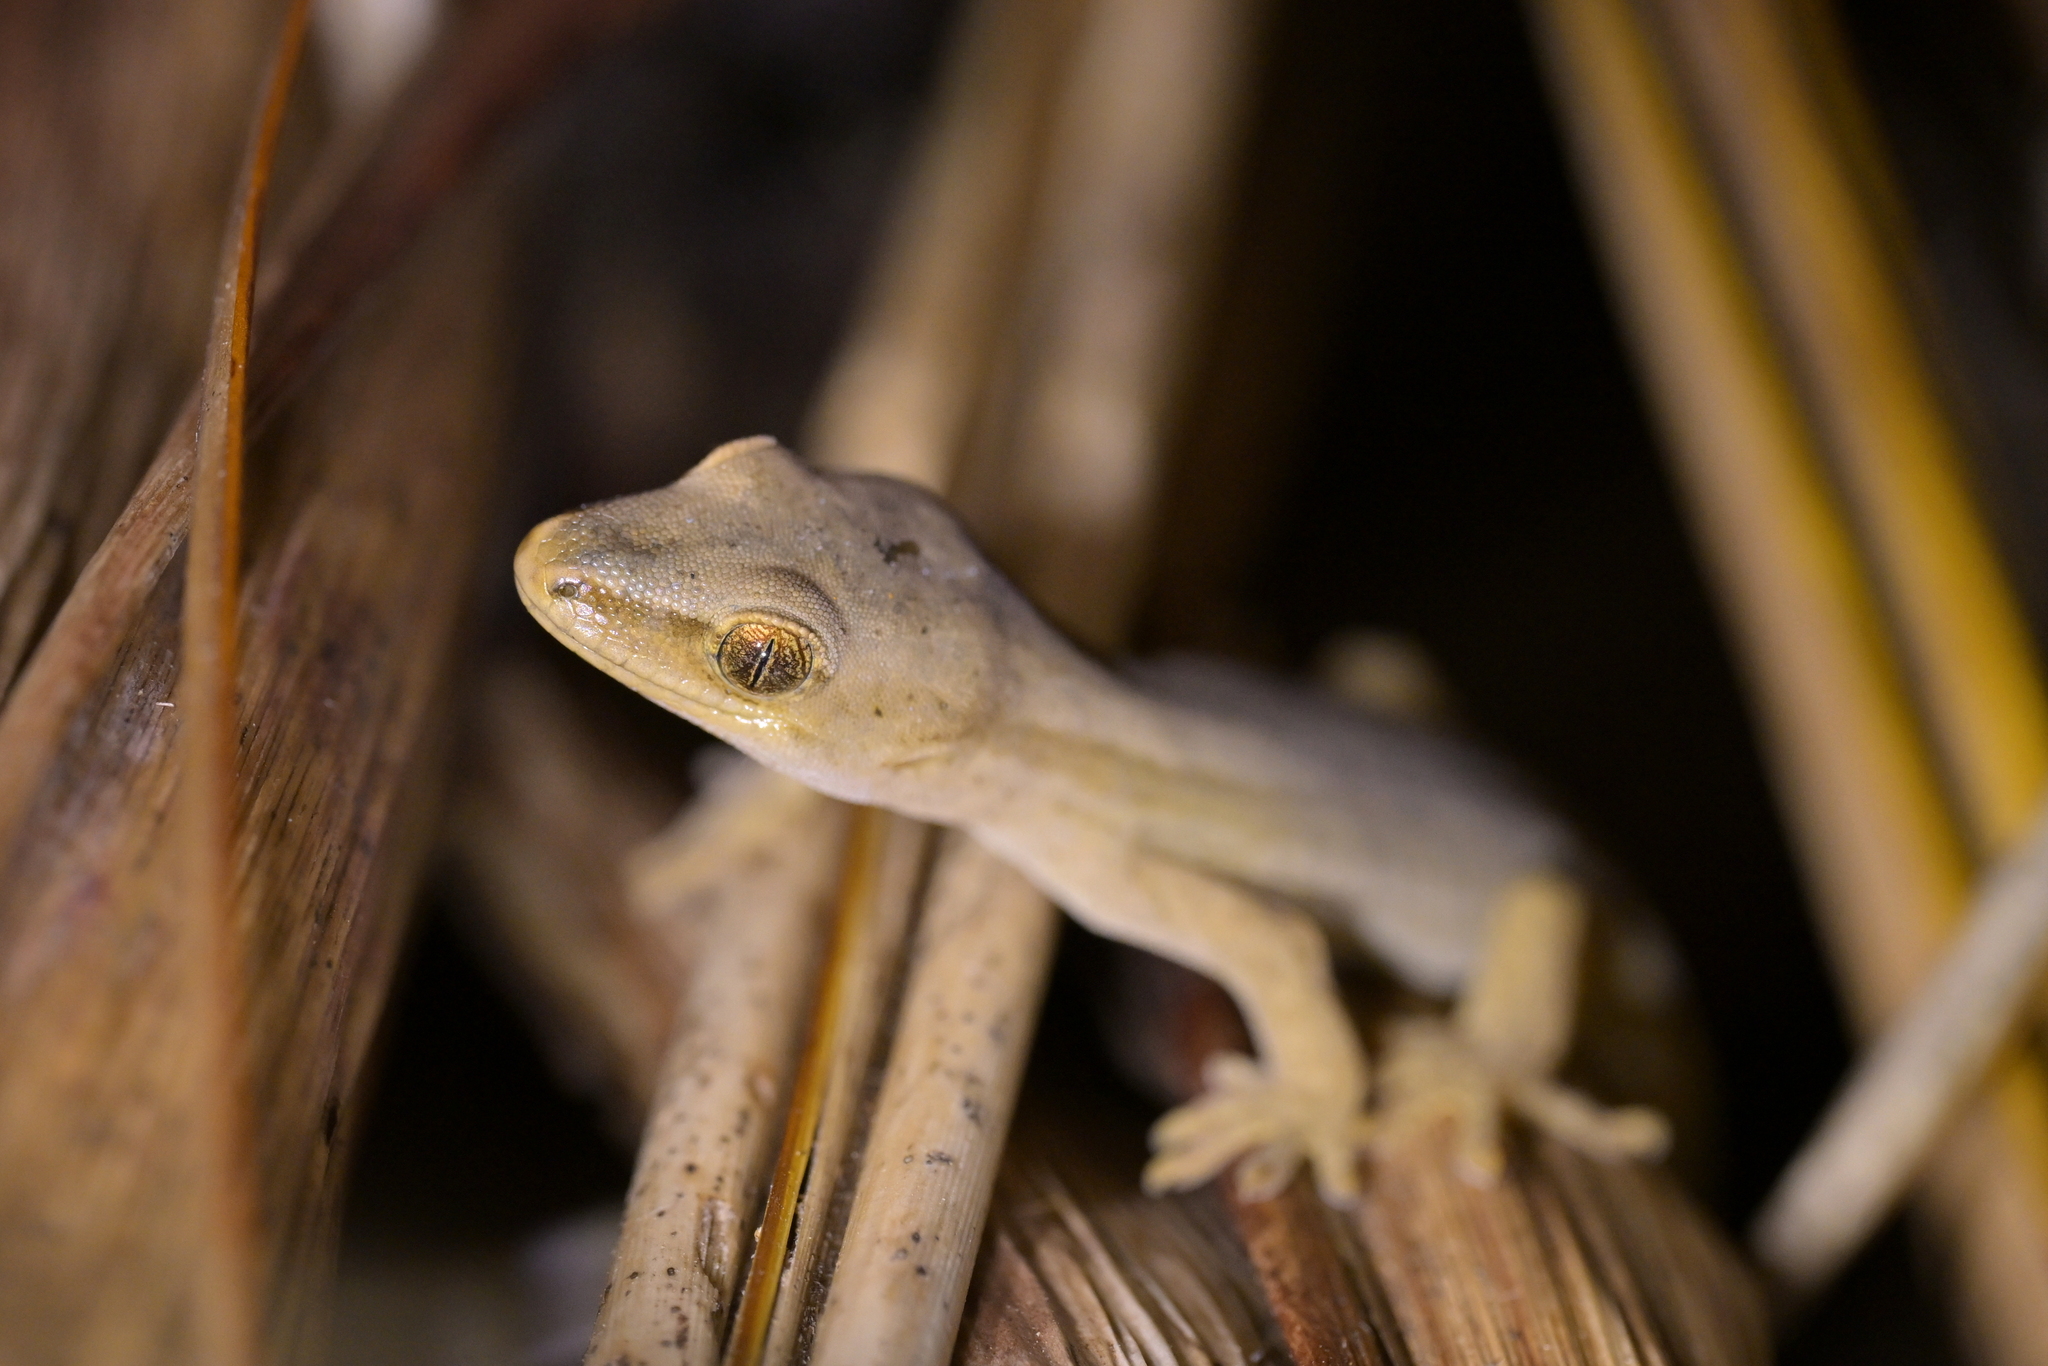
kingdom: Animalia
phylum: Chordata
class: Squamata
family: Diplodactylidae
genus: Woodworthia
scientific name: Woodworthia chrysosiretica
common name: Gold-striped gecko
